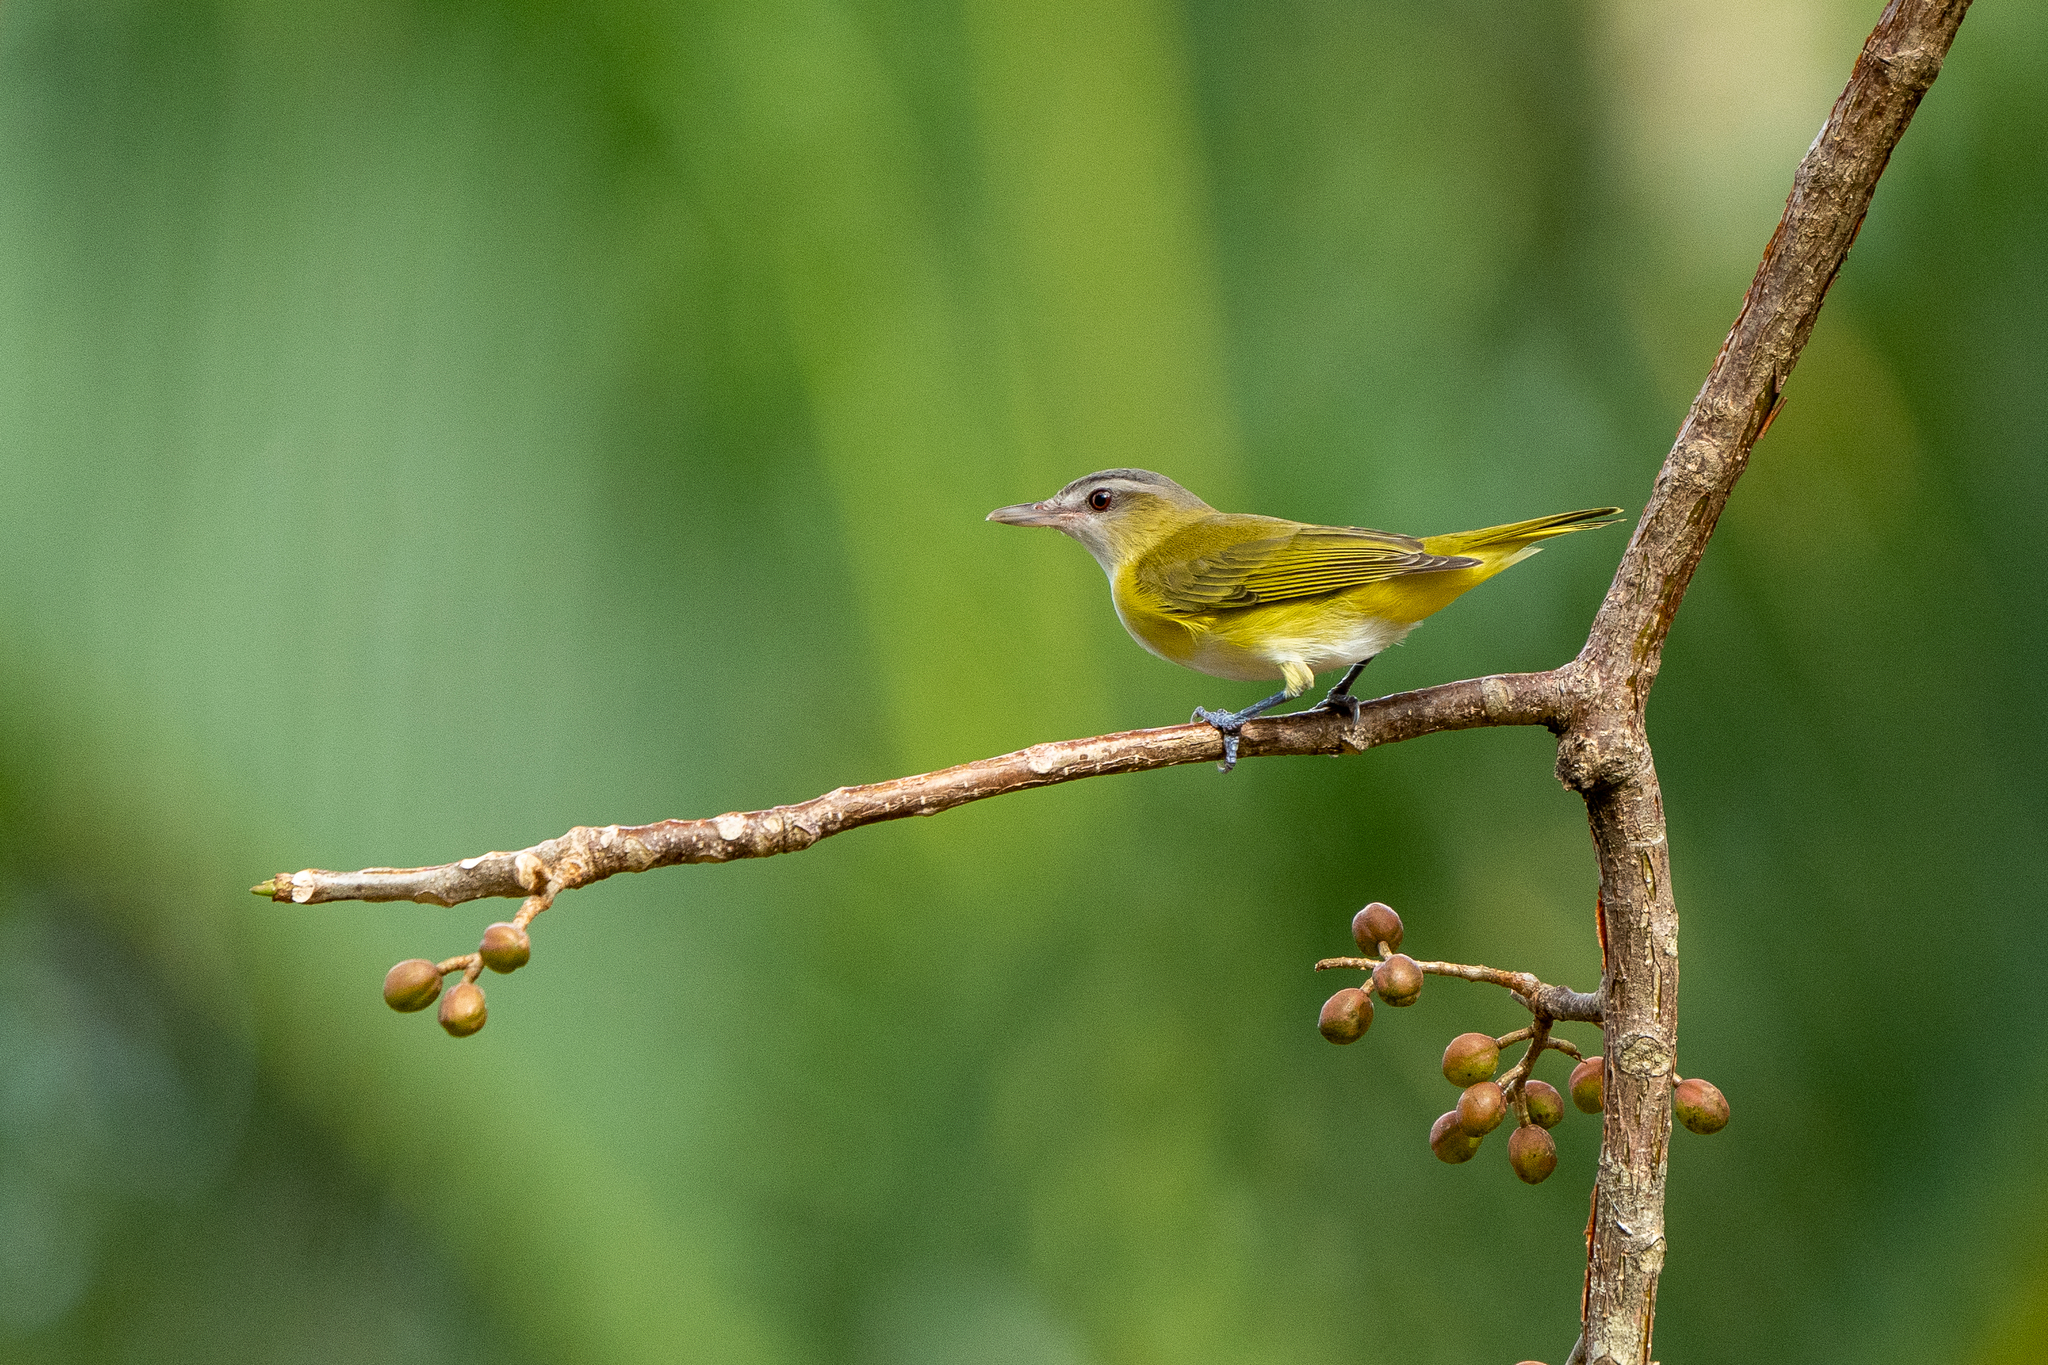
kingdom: Animalia
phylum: Chordata
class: Aves
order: Passeriformes
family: Vireonidae
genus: Vireo
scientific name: Vireo flavoviridis
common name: Yellow-green vireo
